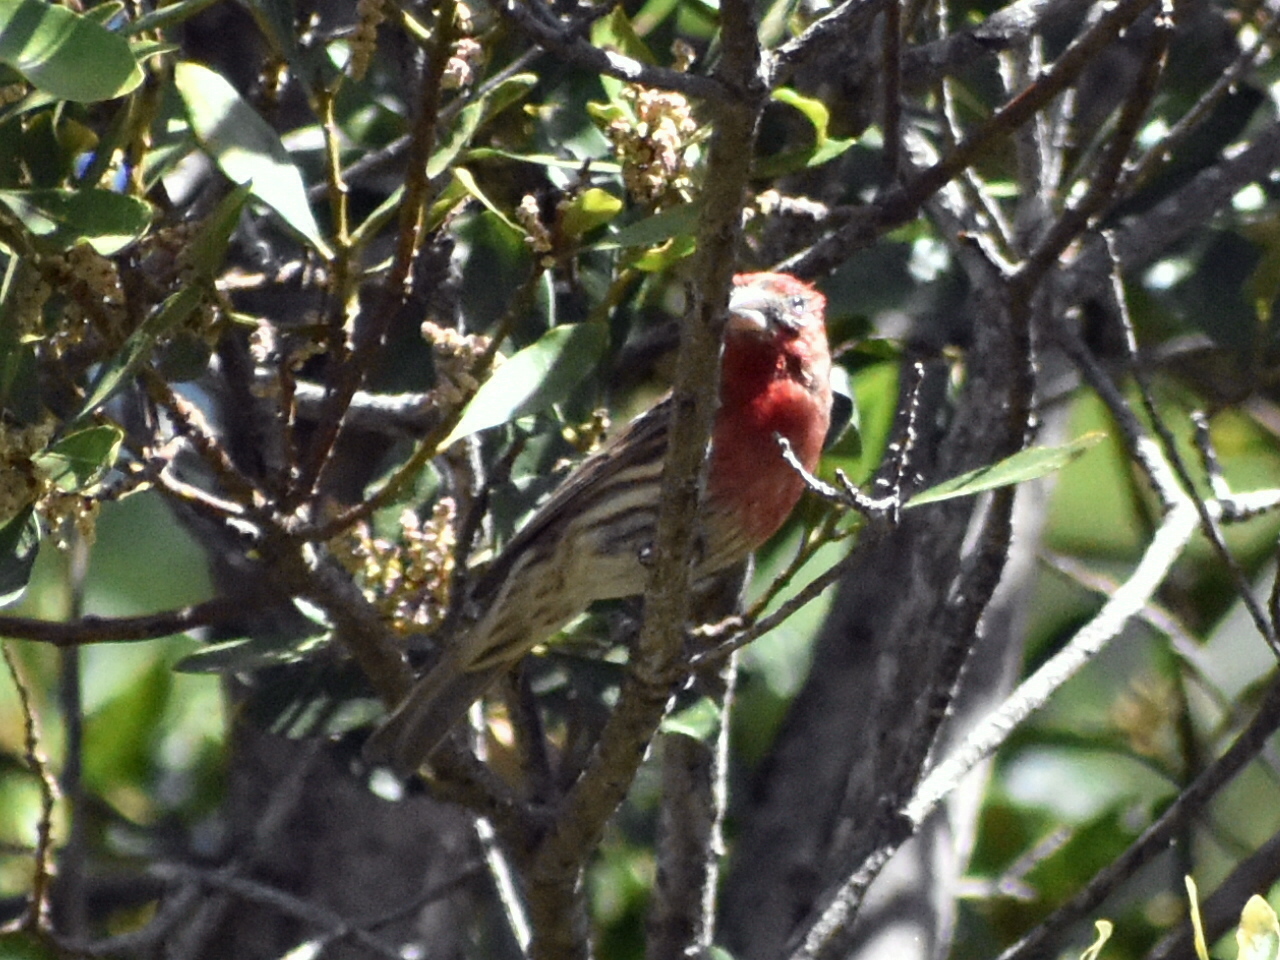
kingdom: Animalia
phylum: Chordata
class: Aves
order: Passeriformes
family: Fringillidae
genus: Haemorhous
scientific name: Haemorhous mexicanus
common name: House finch
